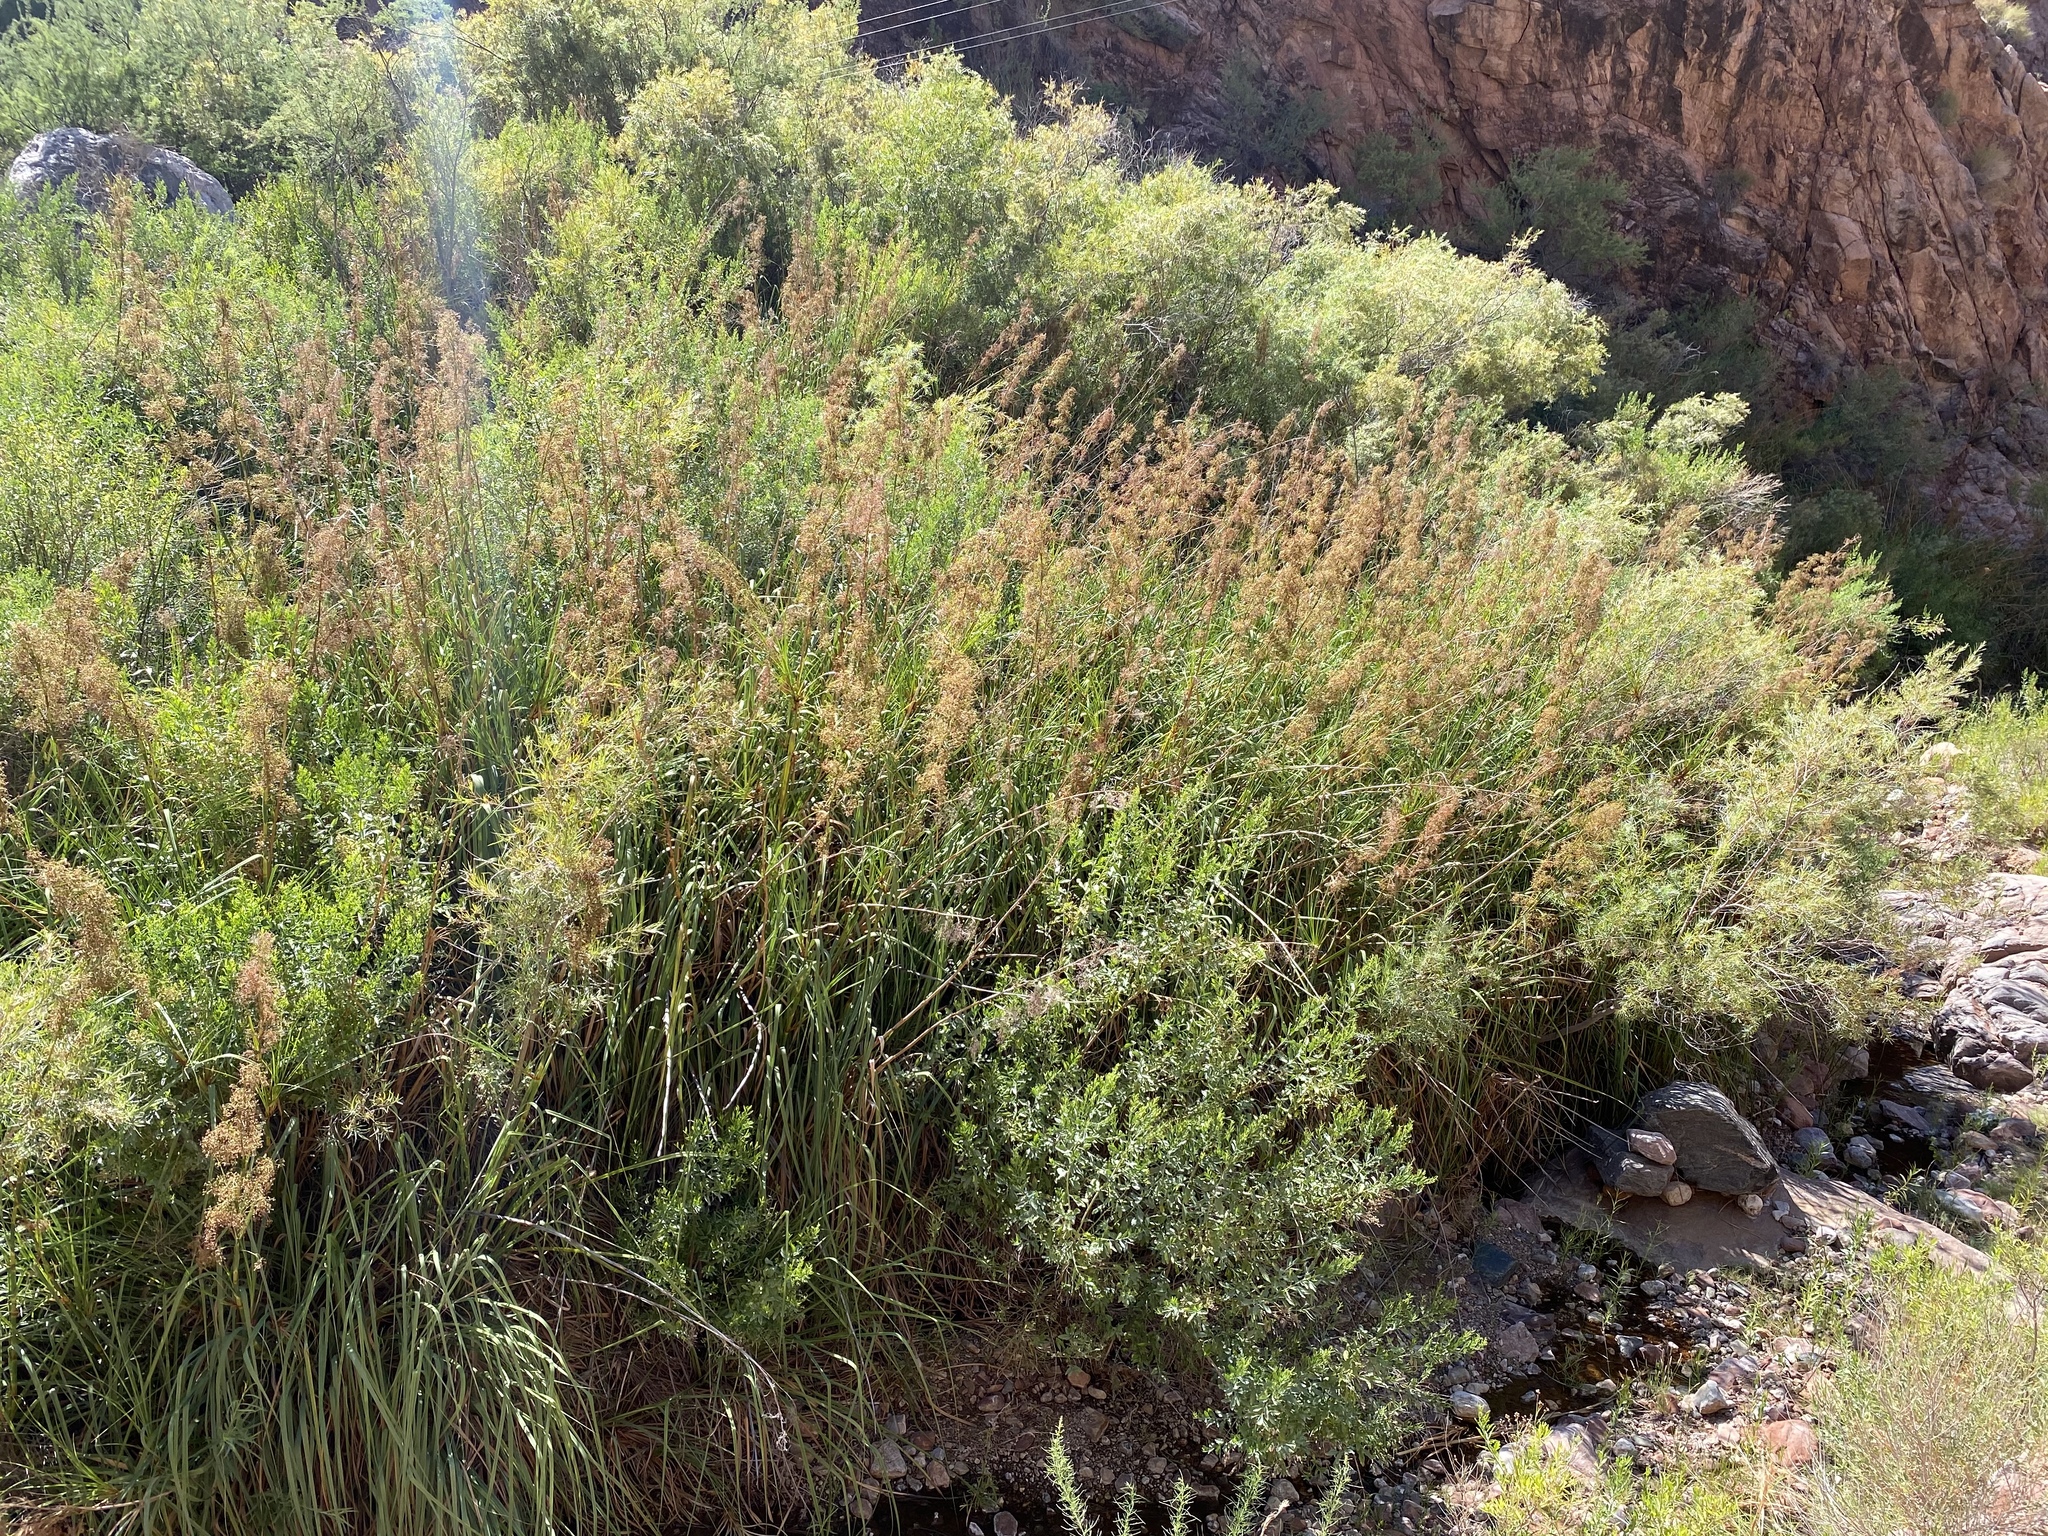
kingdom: Plantae
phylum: Tracheophyta
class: Liliopsida
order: Poales
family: Cyperaceae
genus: Cladium
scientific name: Cladium mariscus
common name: Great fen-sedge
